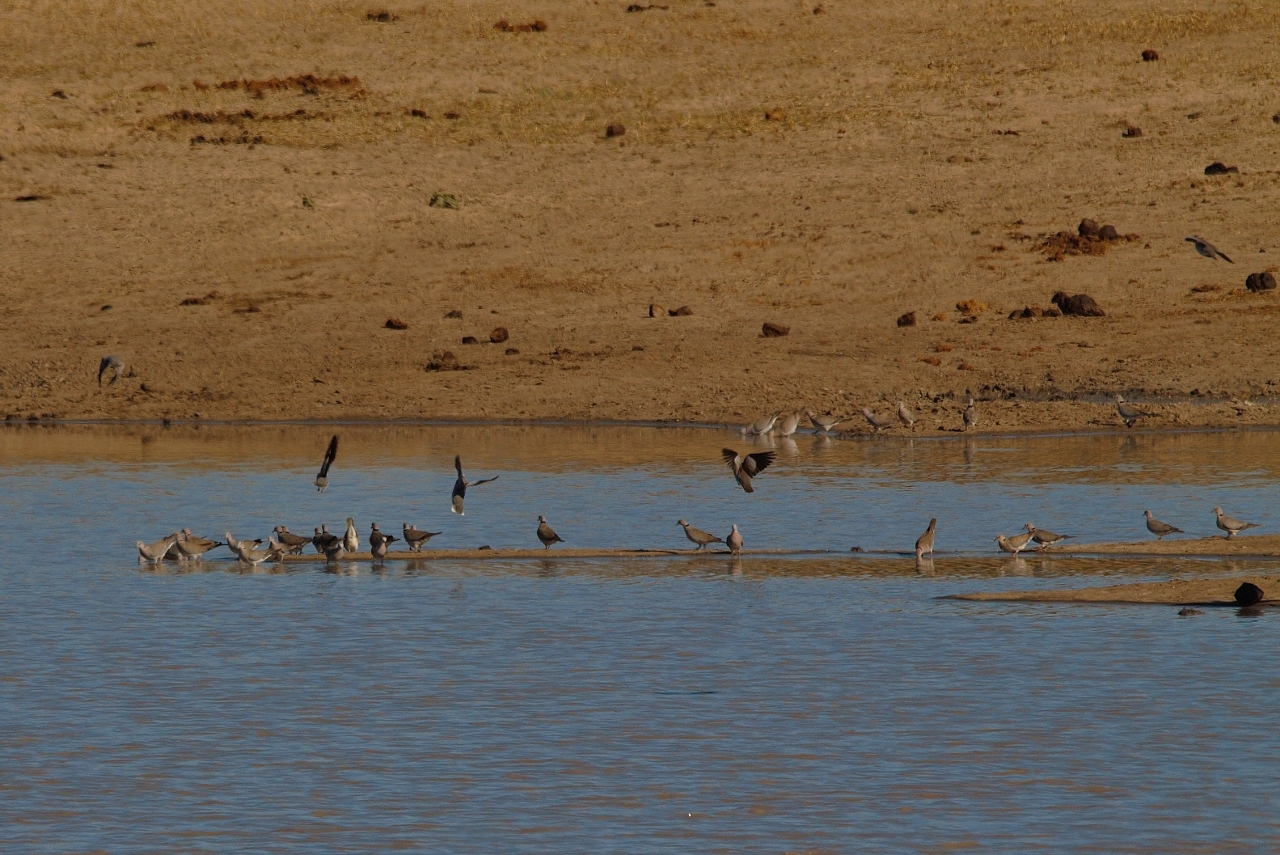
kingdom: Animalia
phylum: Chordata
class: Aves
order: Columbiformes
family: Columbidae
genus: Streptopelia
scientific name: Streptopelia capicola
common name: Ring-necked dove
